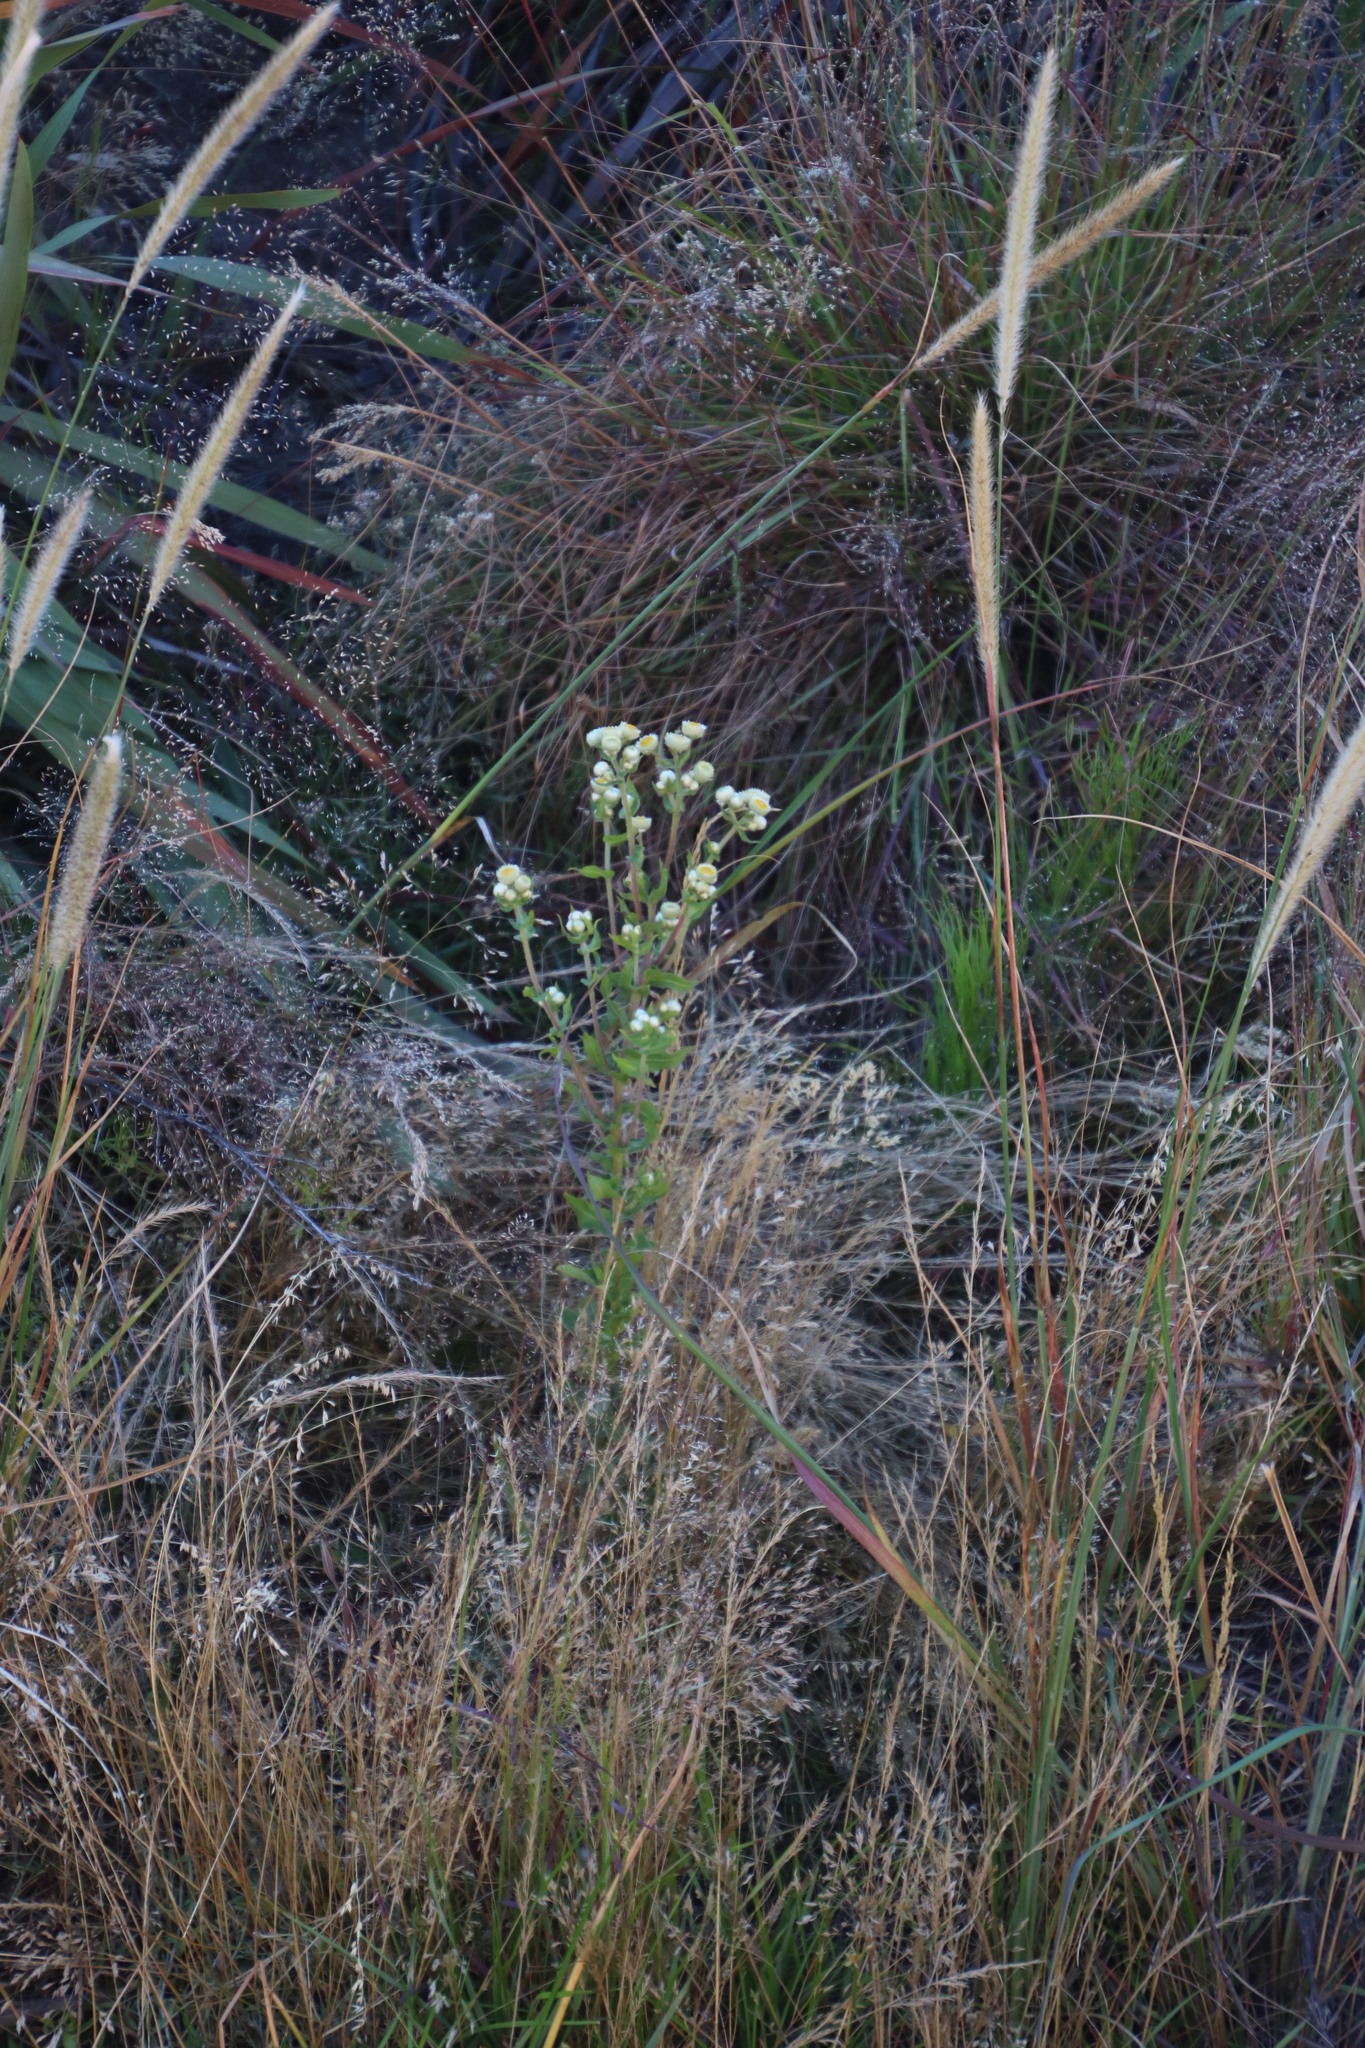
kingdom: Plantae
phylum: Tracheophyta
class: Magnoliopsida
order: Asterales
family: Asteraceae
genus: Helichrysum
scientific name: Helichrysum foetidum
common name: Stinking everlasting
